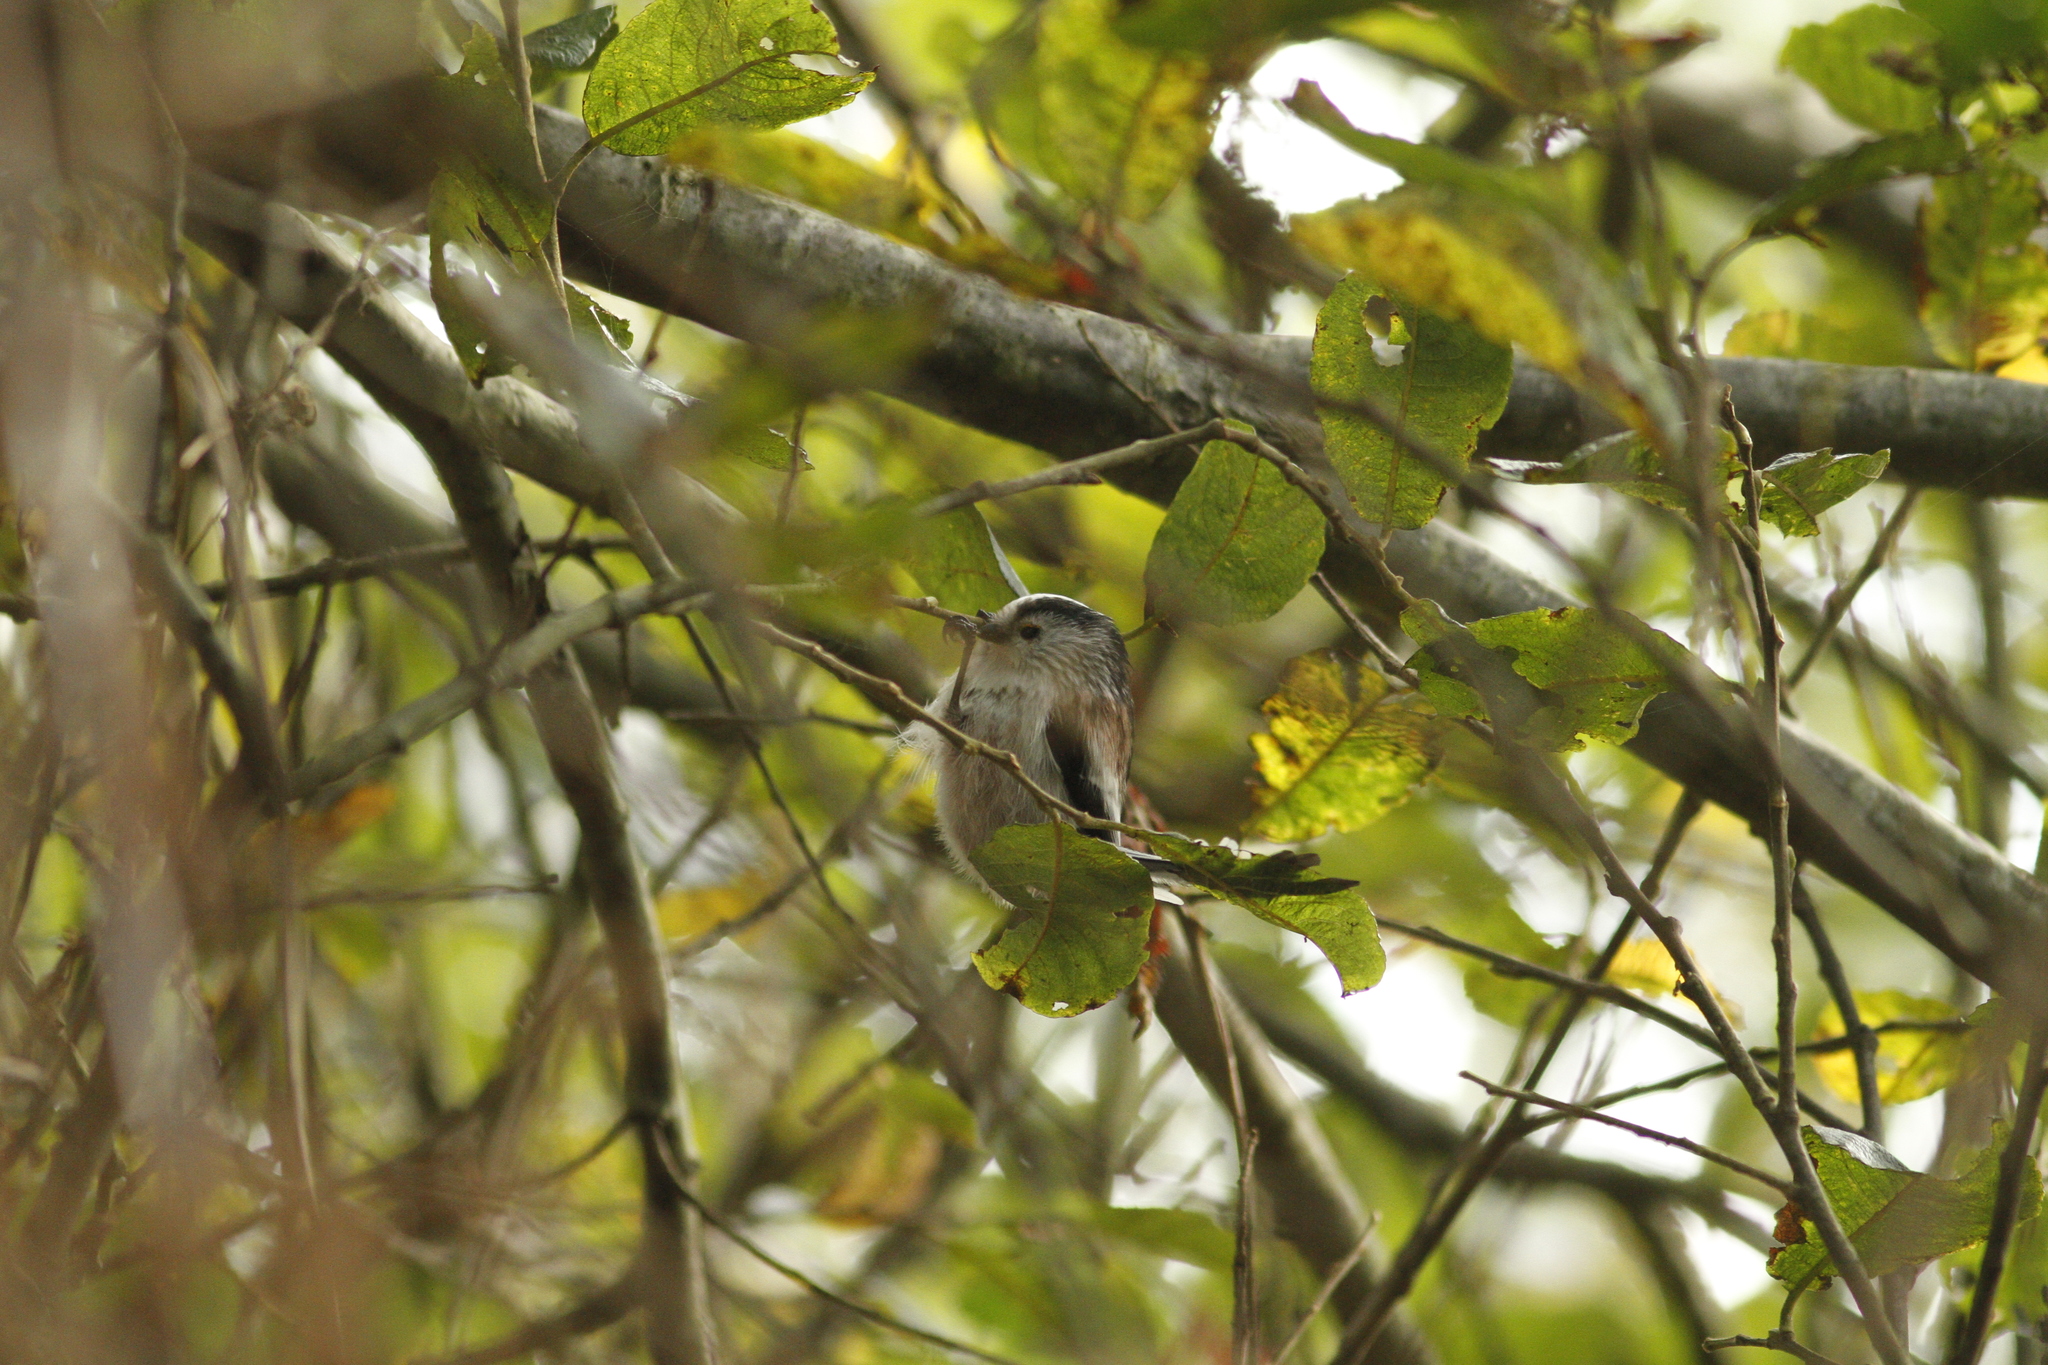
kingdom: Animalia
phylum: Chordata
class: Aves
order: Passeriformes
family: Aegithalidae
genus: Aegithalos
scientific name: Aegithalos caudatus
